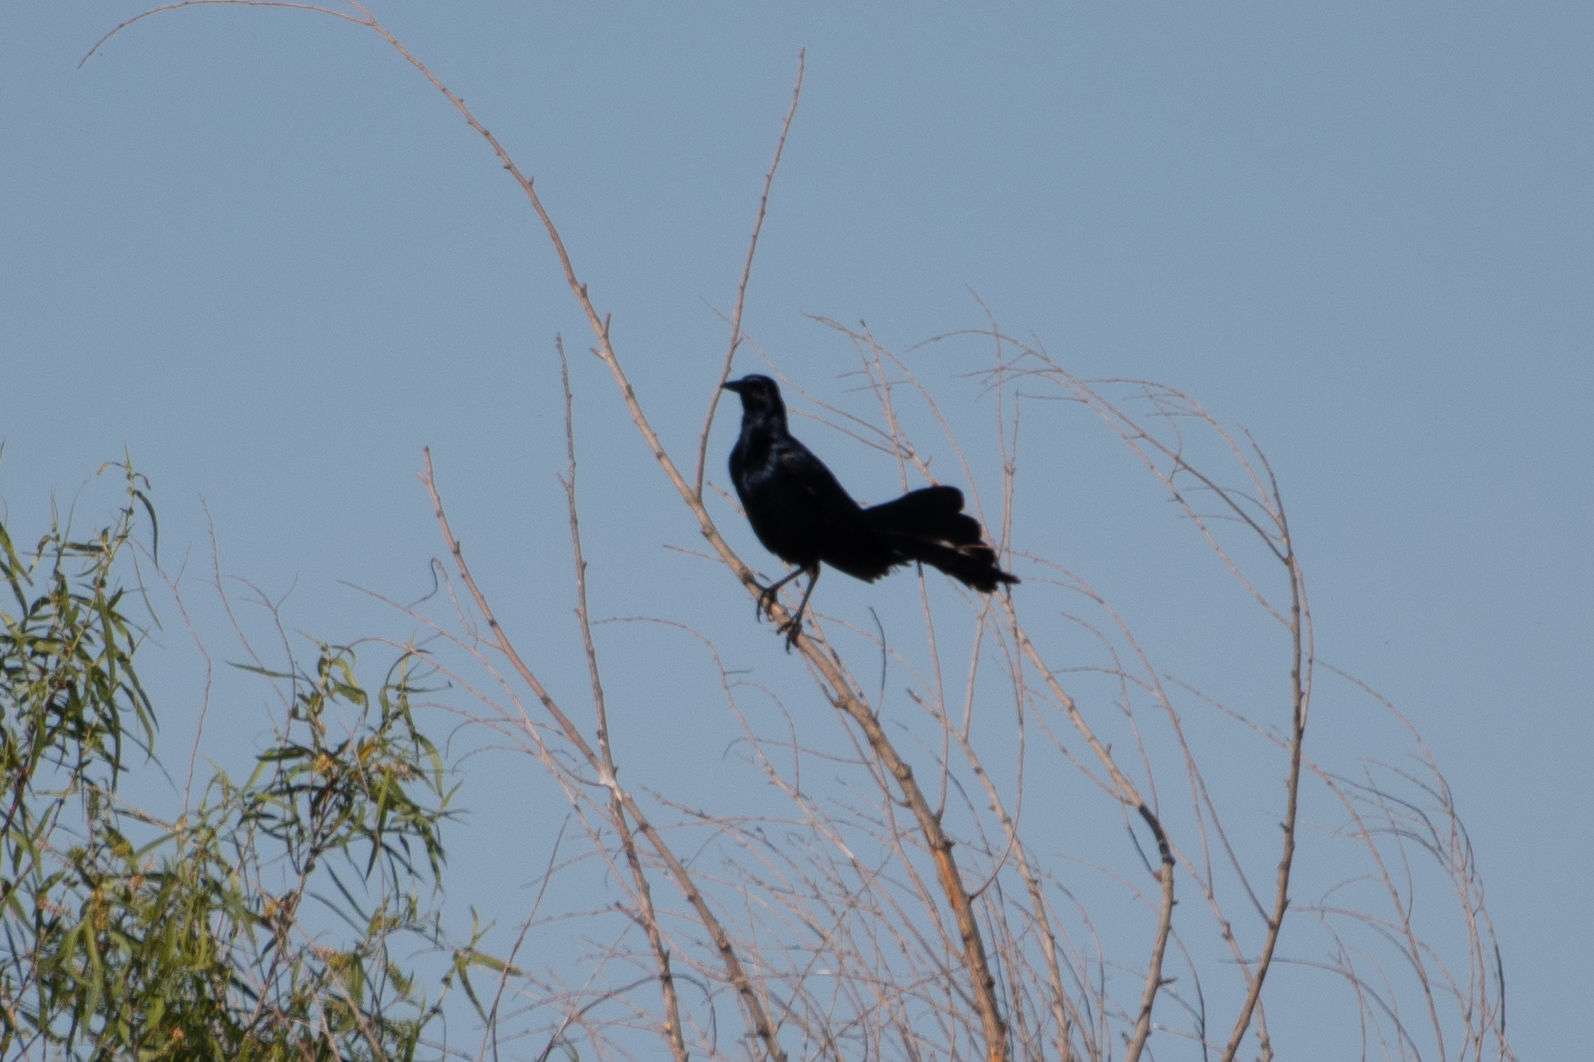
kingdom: Animalia
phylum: Chordata
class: Aves
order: Passeriformes
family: Icteridae
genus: Quiscalus
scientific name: Quiscalus mexicanus
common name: Great-tailed grackle
